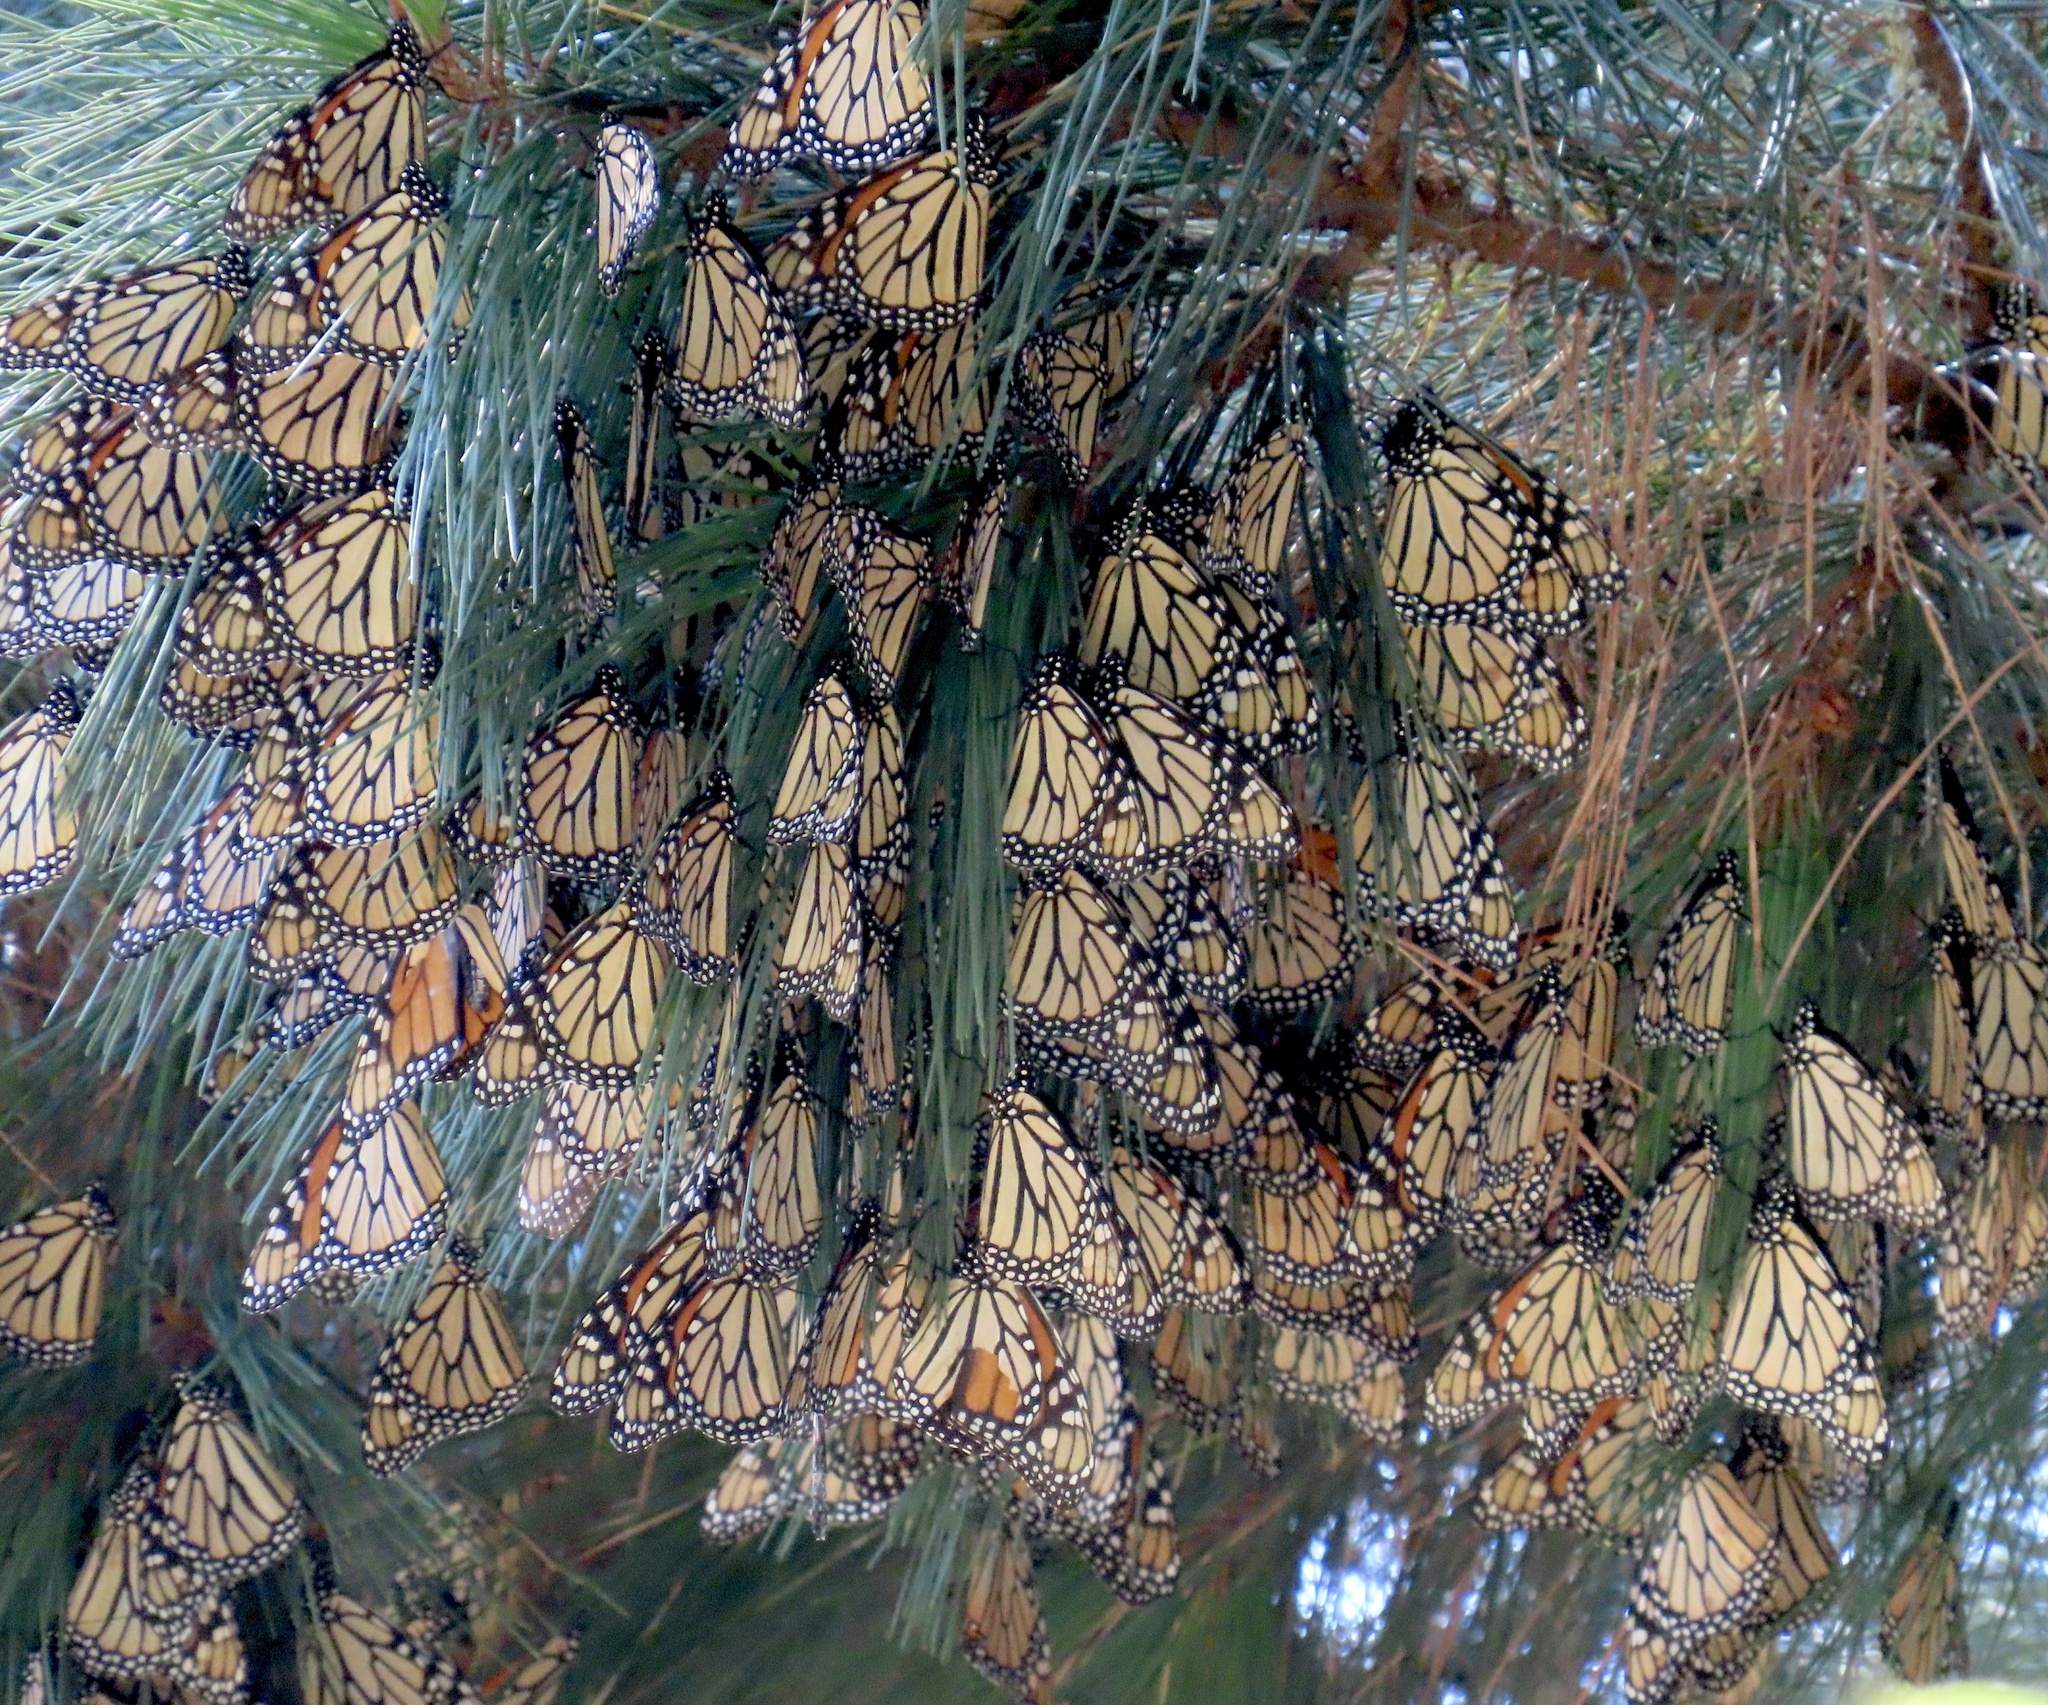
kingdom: Animalia
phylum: Arthropoda
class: Insecta
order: Lepidoptera
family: Nymphalidae
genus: Danaus
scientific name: Danaus plexippus
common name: Monarch
